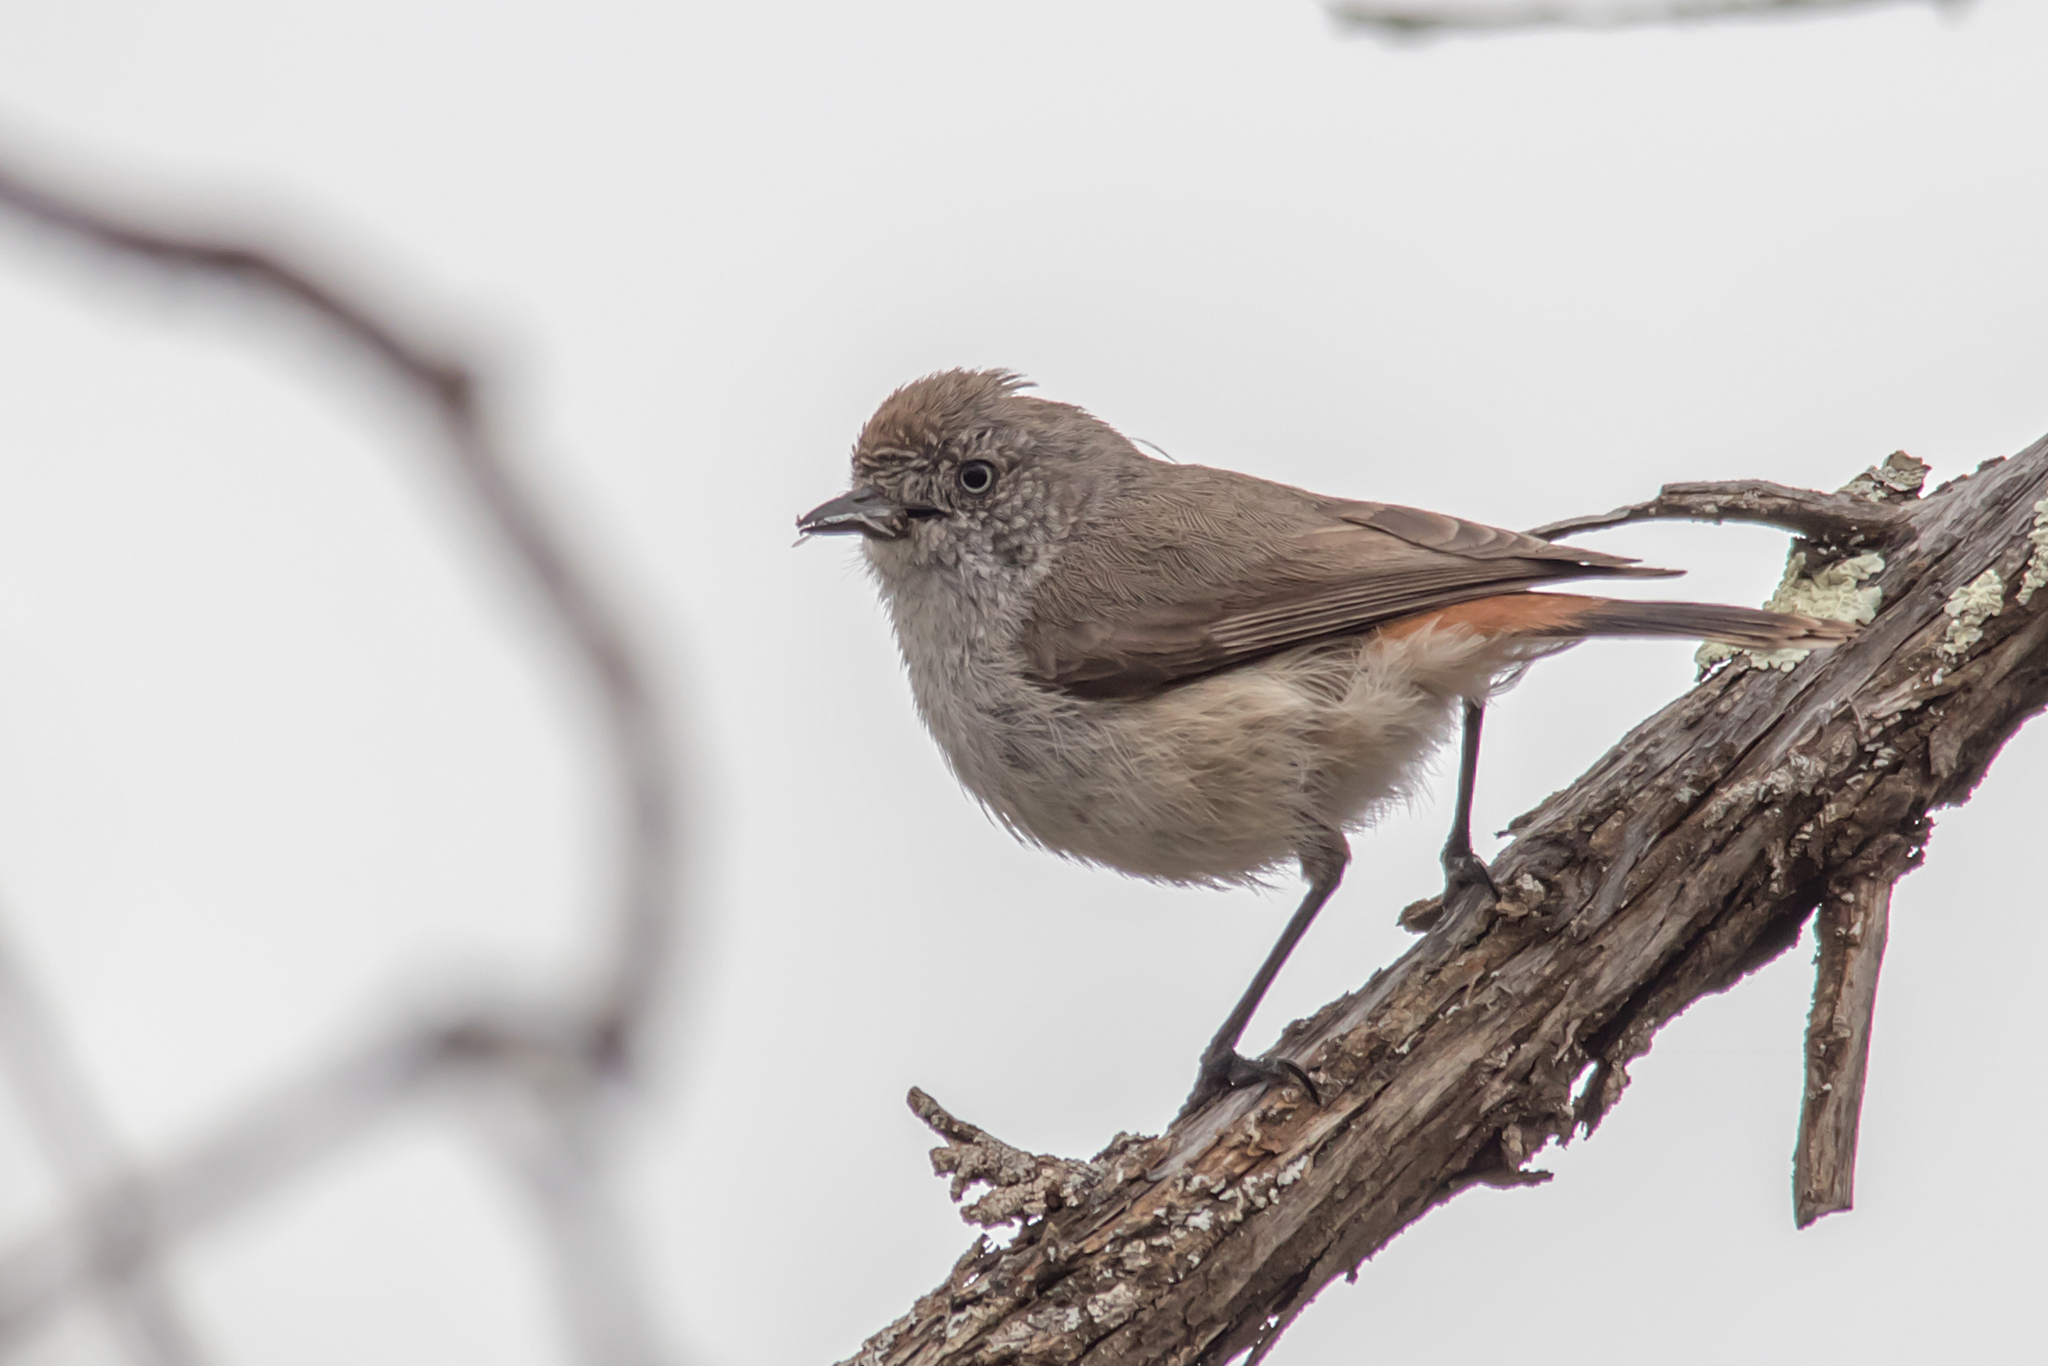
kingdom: Animalia
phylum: Chordata
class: Aves
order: Passeriformes
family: Acanthizidae
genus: Acanthiza
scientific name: Acanthiza uropygialis
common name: Chestnut-rumped thornbill
